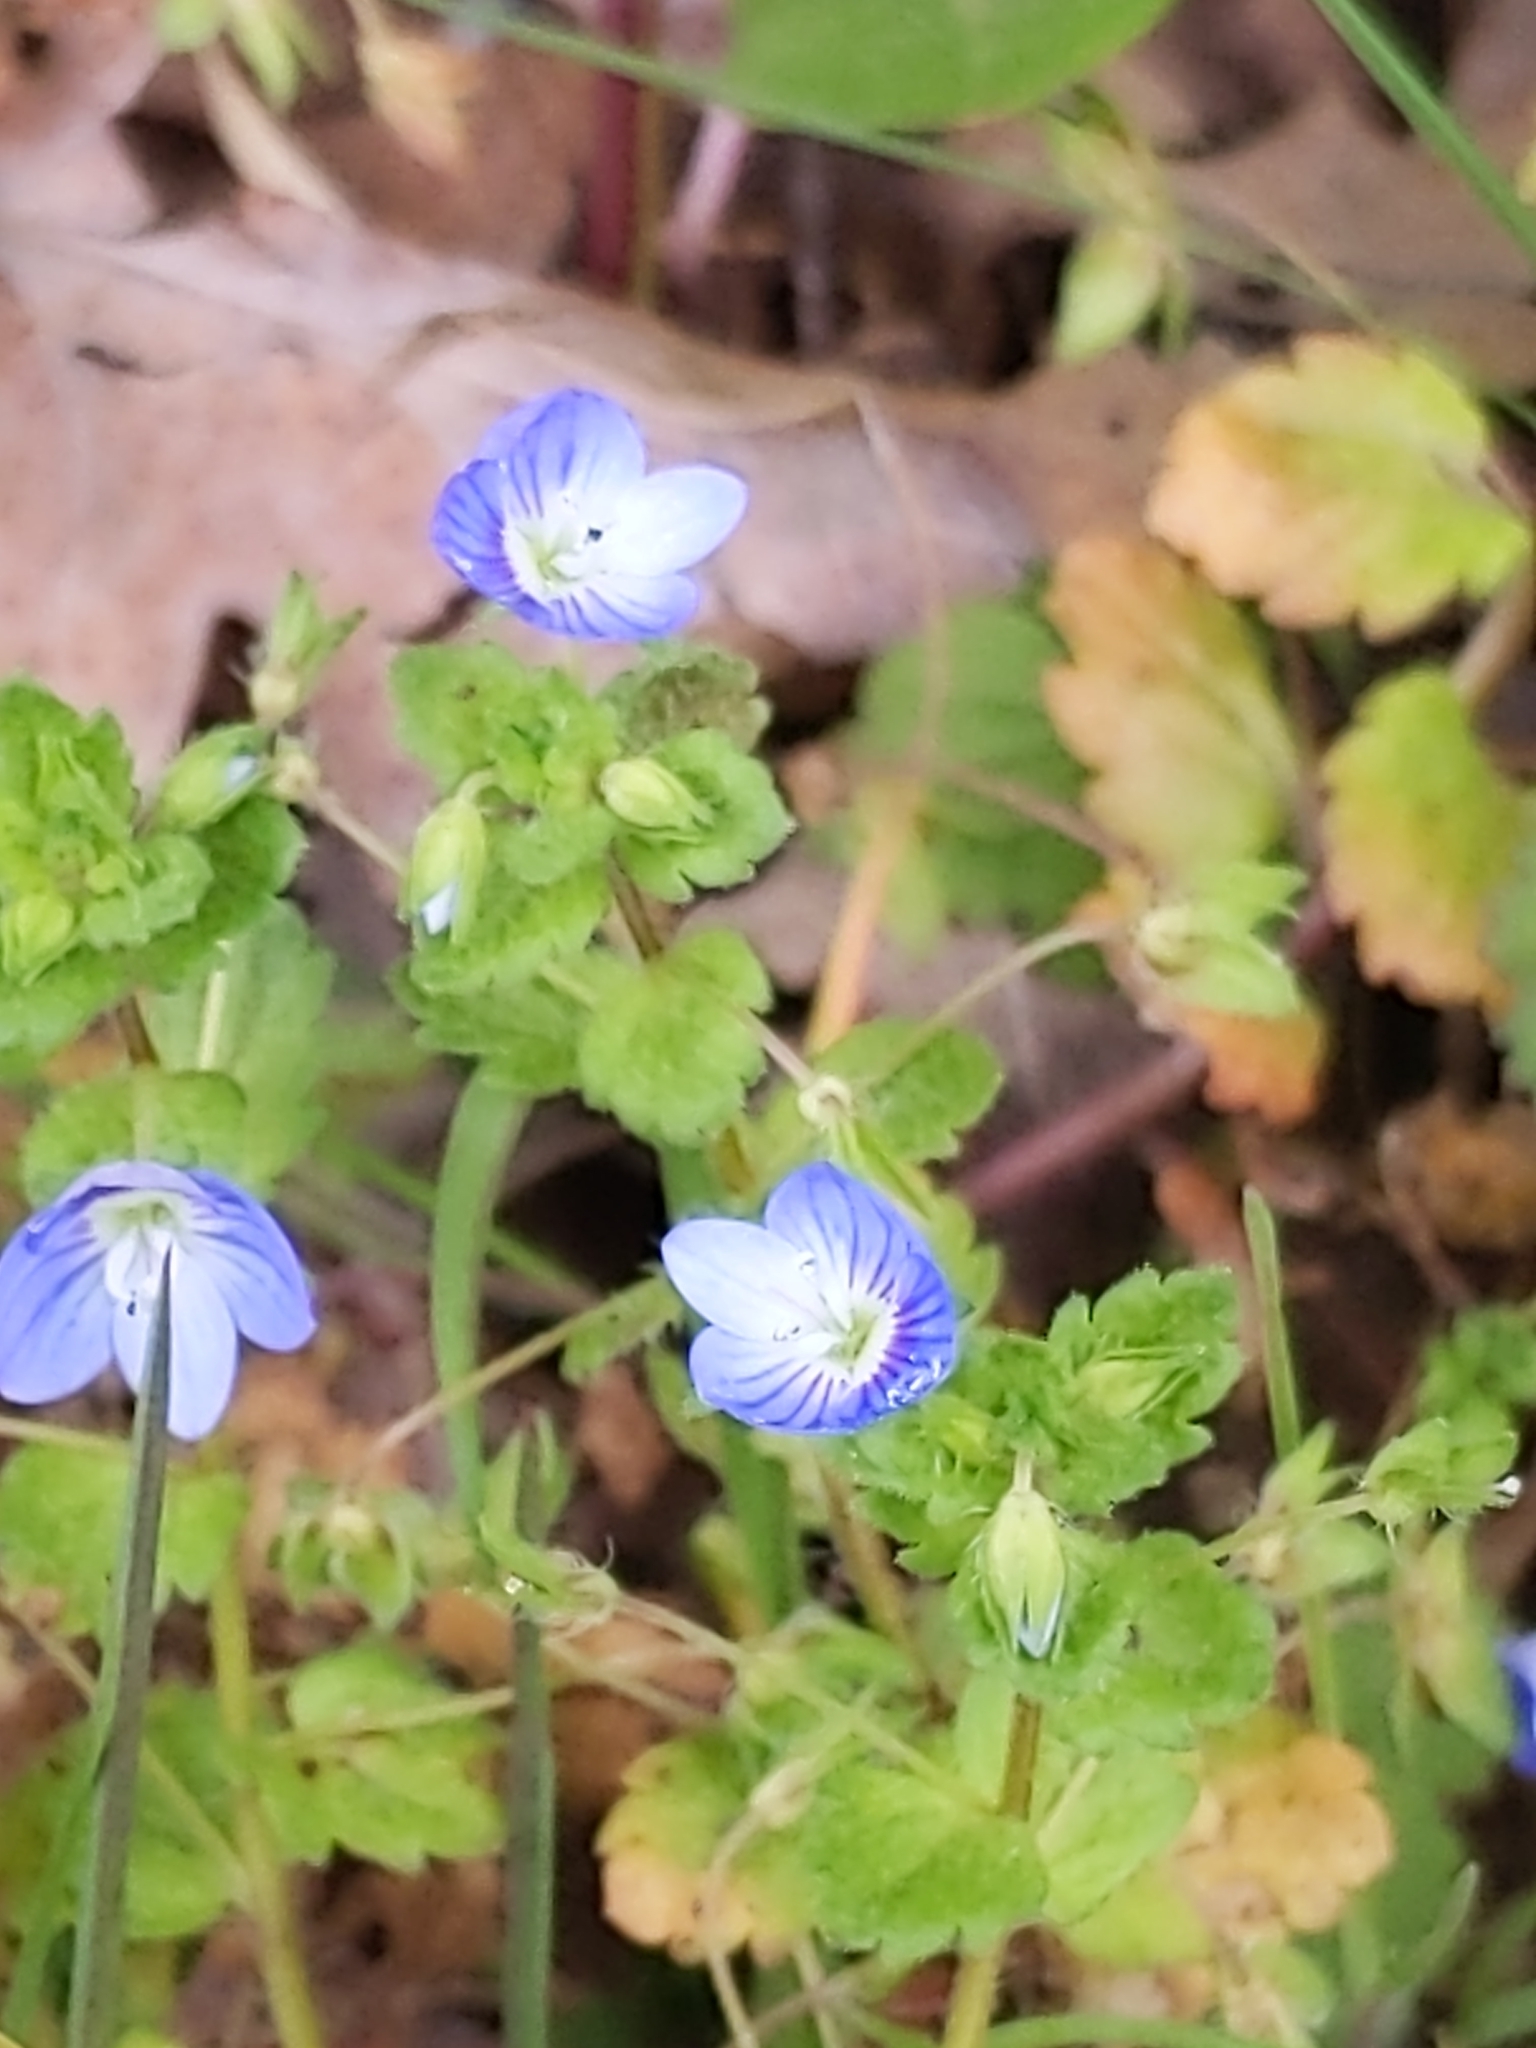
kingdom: Plantae
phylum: Tracheophyta
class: Magnoliopsida
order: Lamiales
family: Plantaginaceae
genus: Veronica
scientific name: Veronica persica
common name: Common field-speedwell
